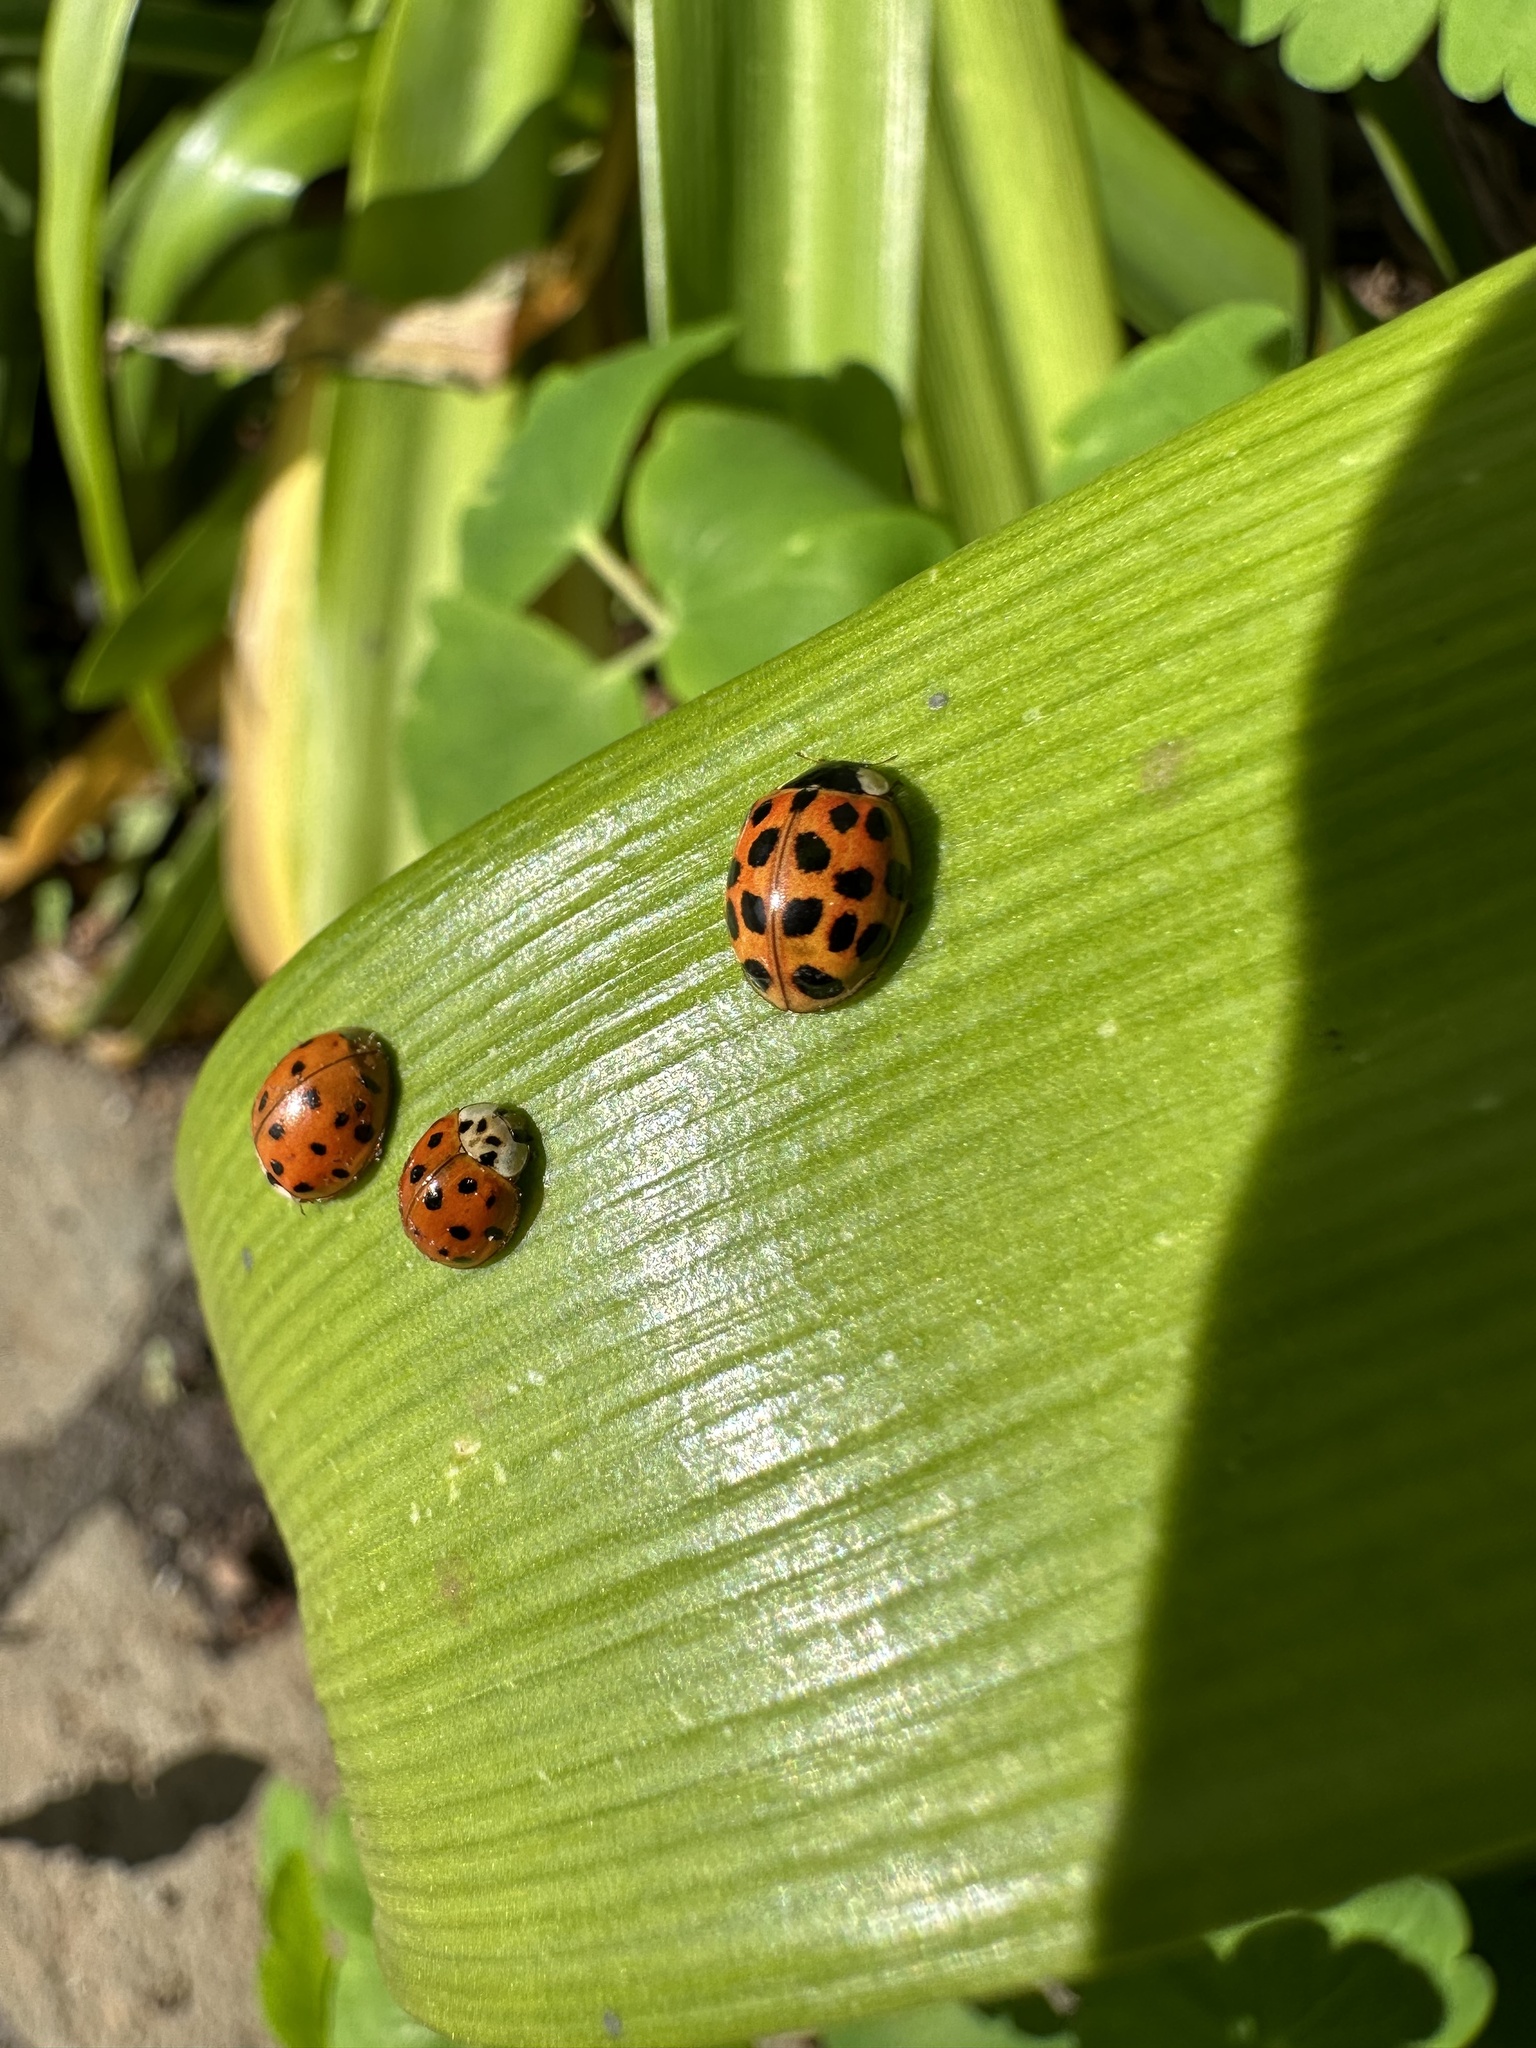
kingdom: Animalia
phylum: Arthropoda
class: Insecta
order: Coleoptera
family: Coccinellidae
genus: Harmonia
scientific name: Harmonia axyridis
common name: Harlequin ladybird
